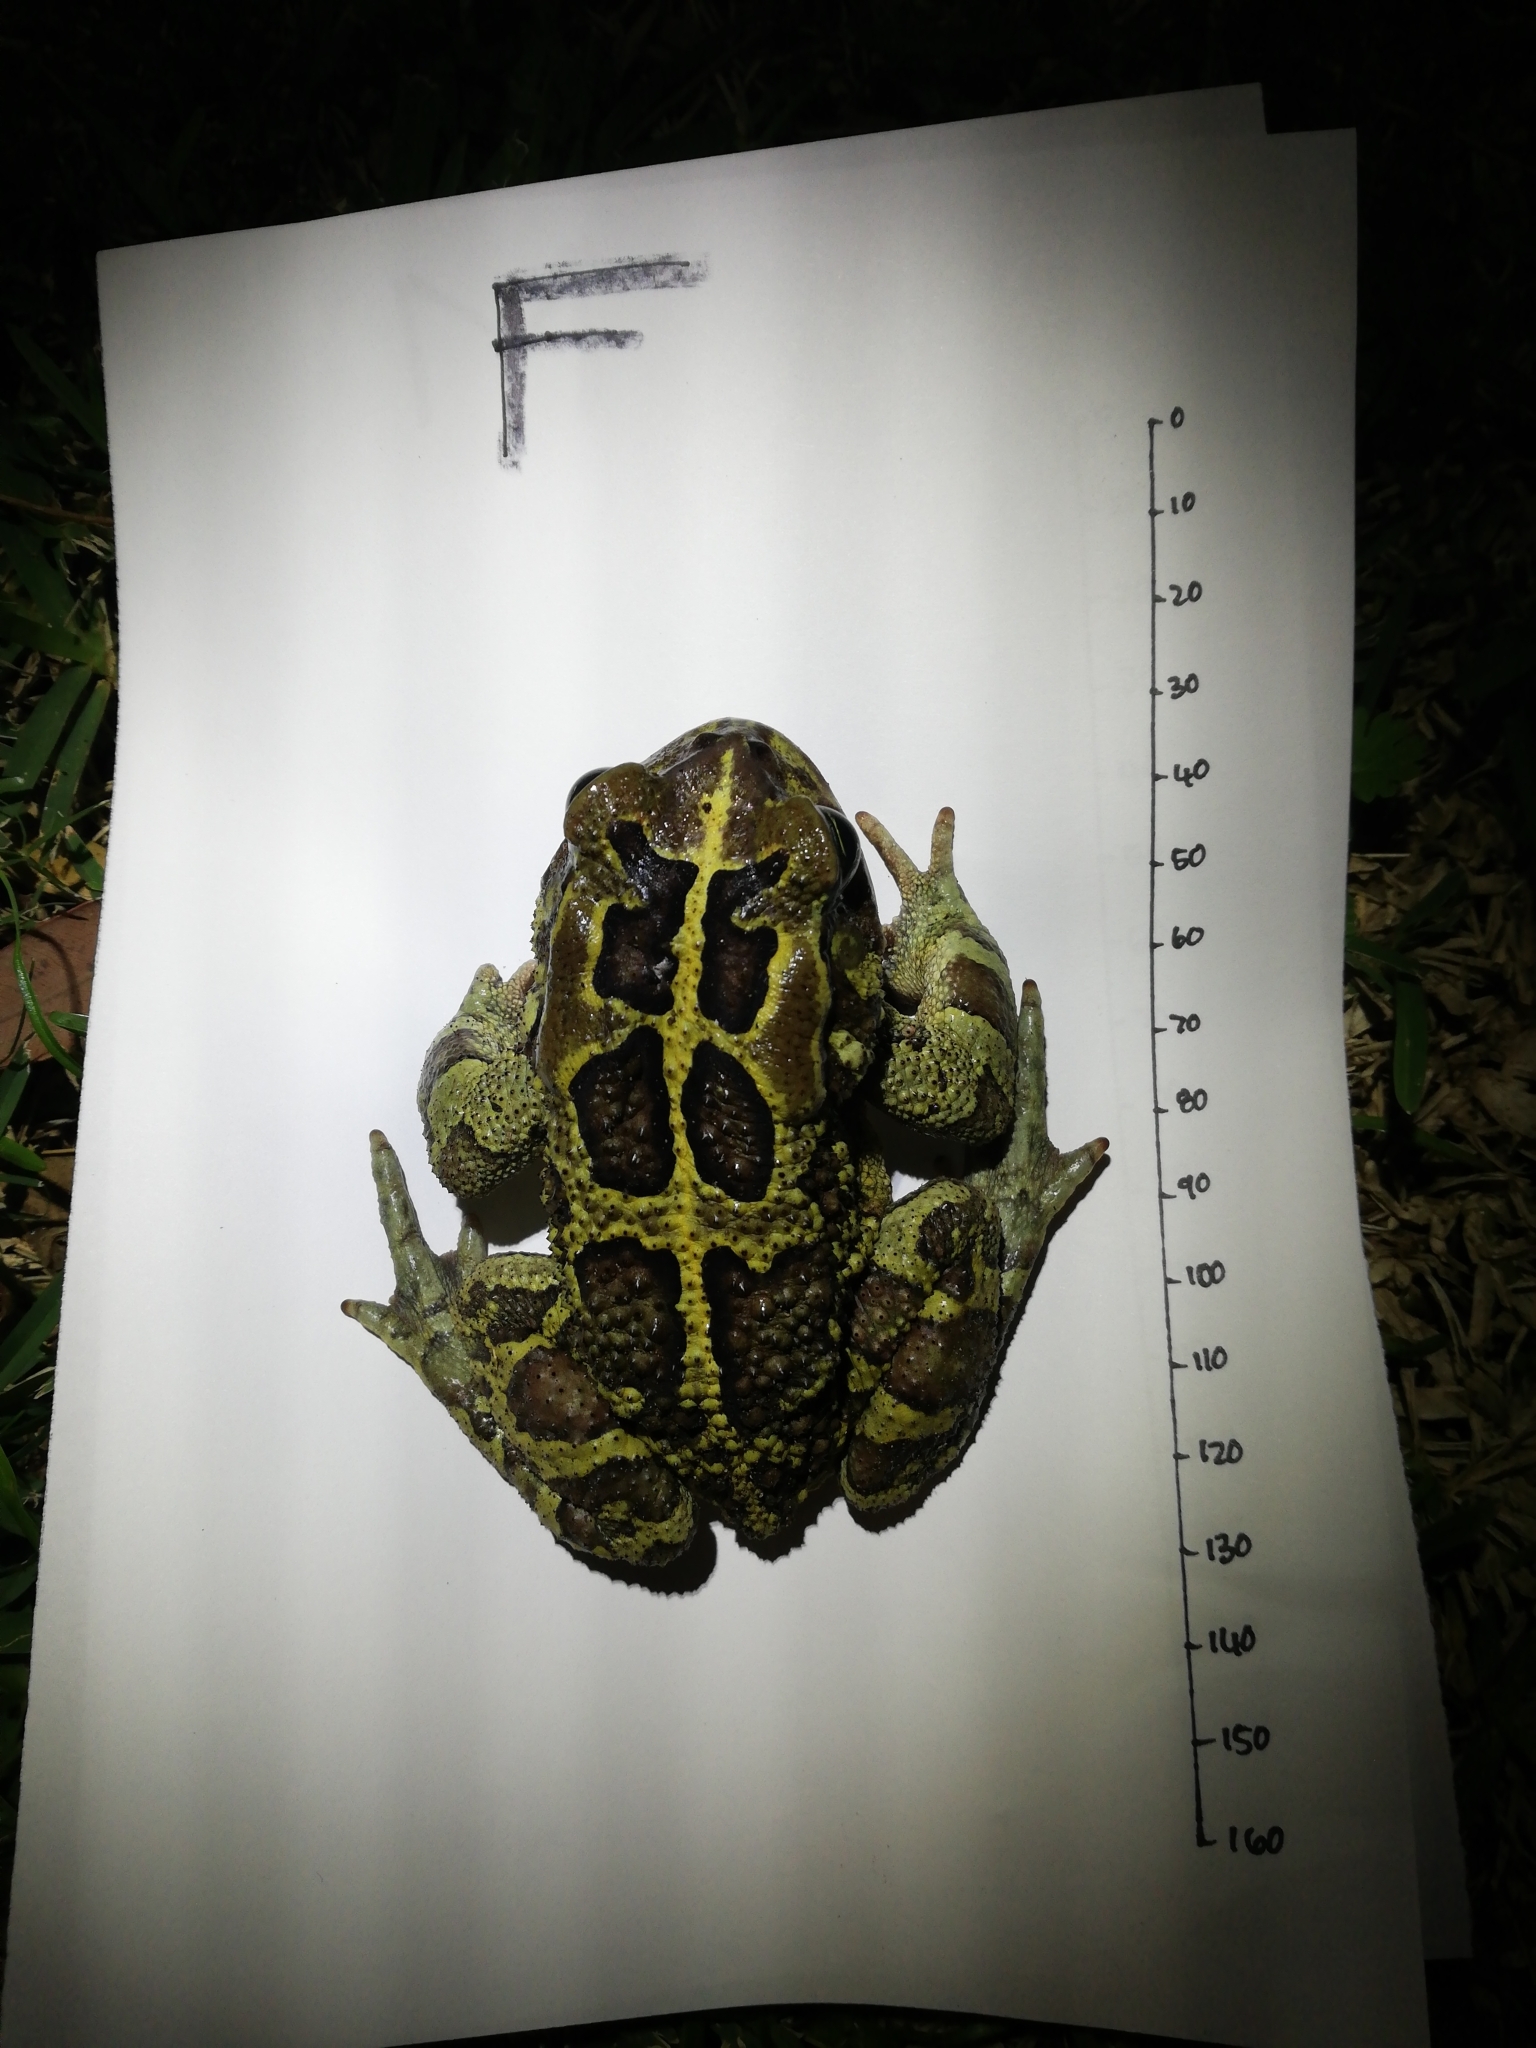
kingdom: Animalia
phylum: Chordata
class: Amphibia
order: Anura
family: Bufonidae
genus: Sclerophrys
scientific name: Sclerophrys pantherina
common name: Panther toad
